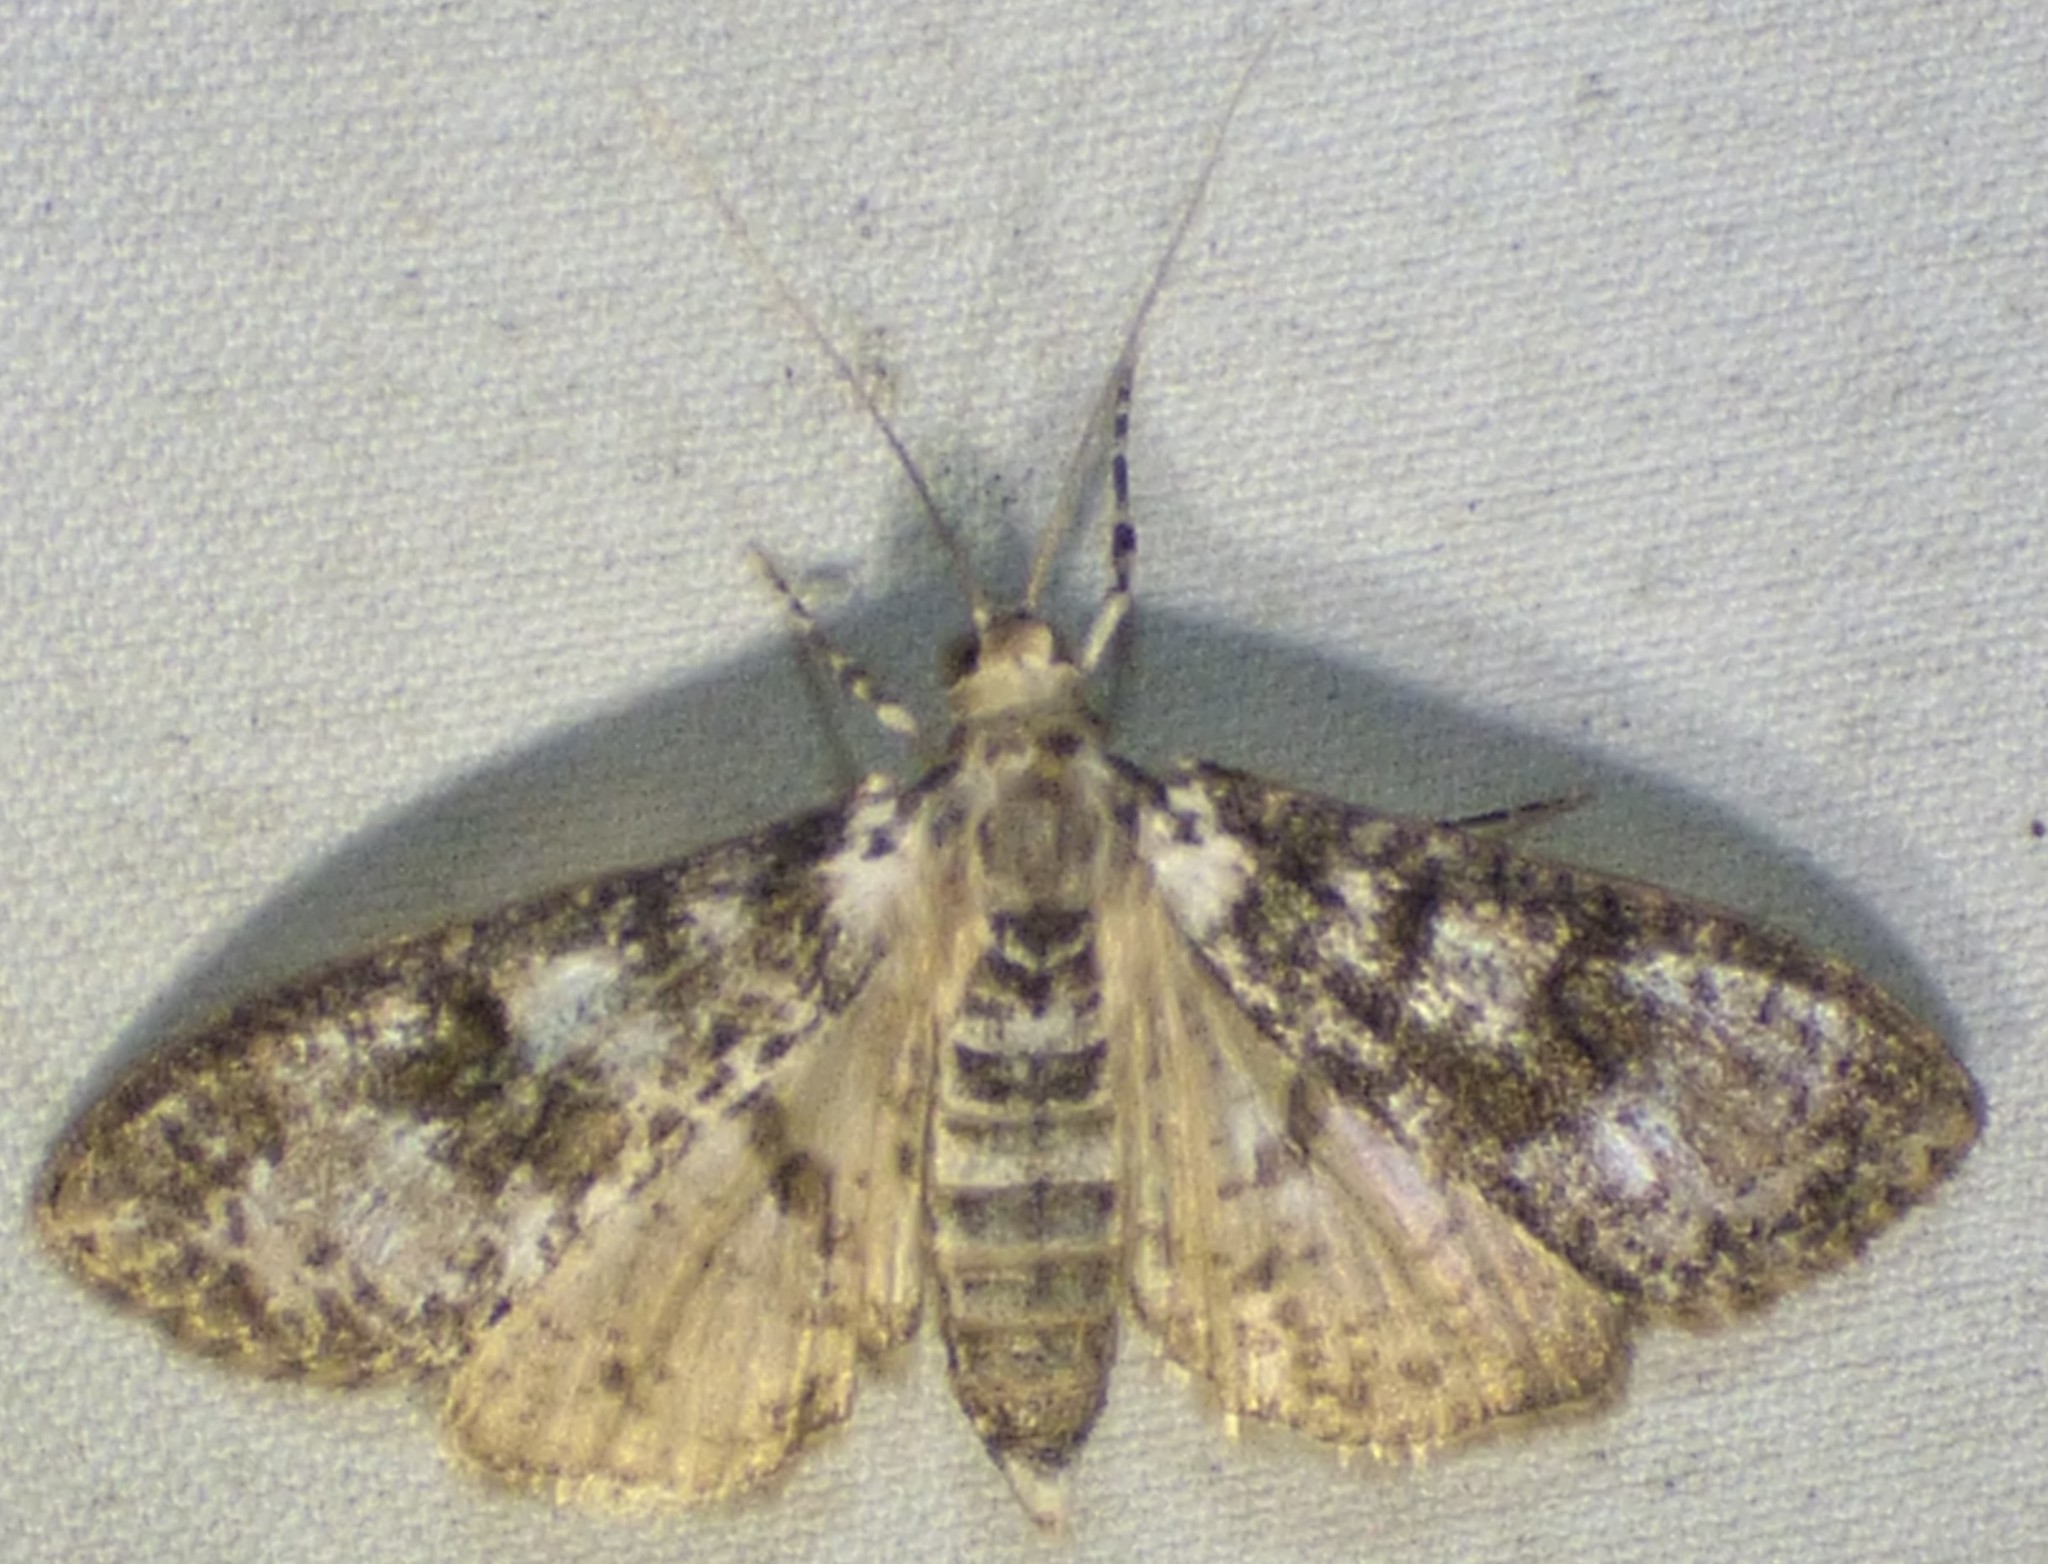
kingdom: Animalia
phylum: Arthropoda
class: Insecta
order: Lepidoptera
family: Crambidae
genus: Palpita
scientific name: Palpita magniferalis
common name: Splendid palpita moth
